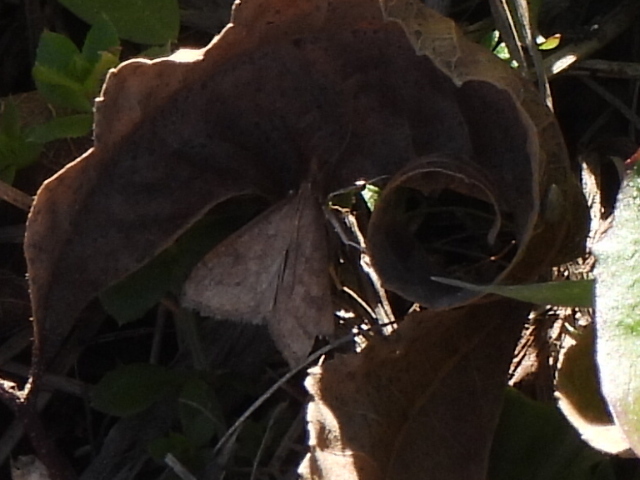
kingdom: Animalia
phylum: Arthropoda
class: Insecta
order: Lepidoptera
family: Crambidae
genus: Udea
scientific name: Udea rubigalis
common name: Celery leaftier moth
